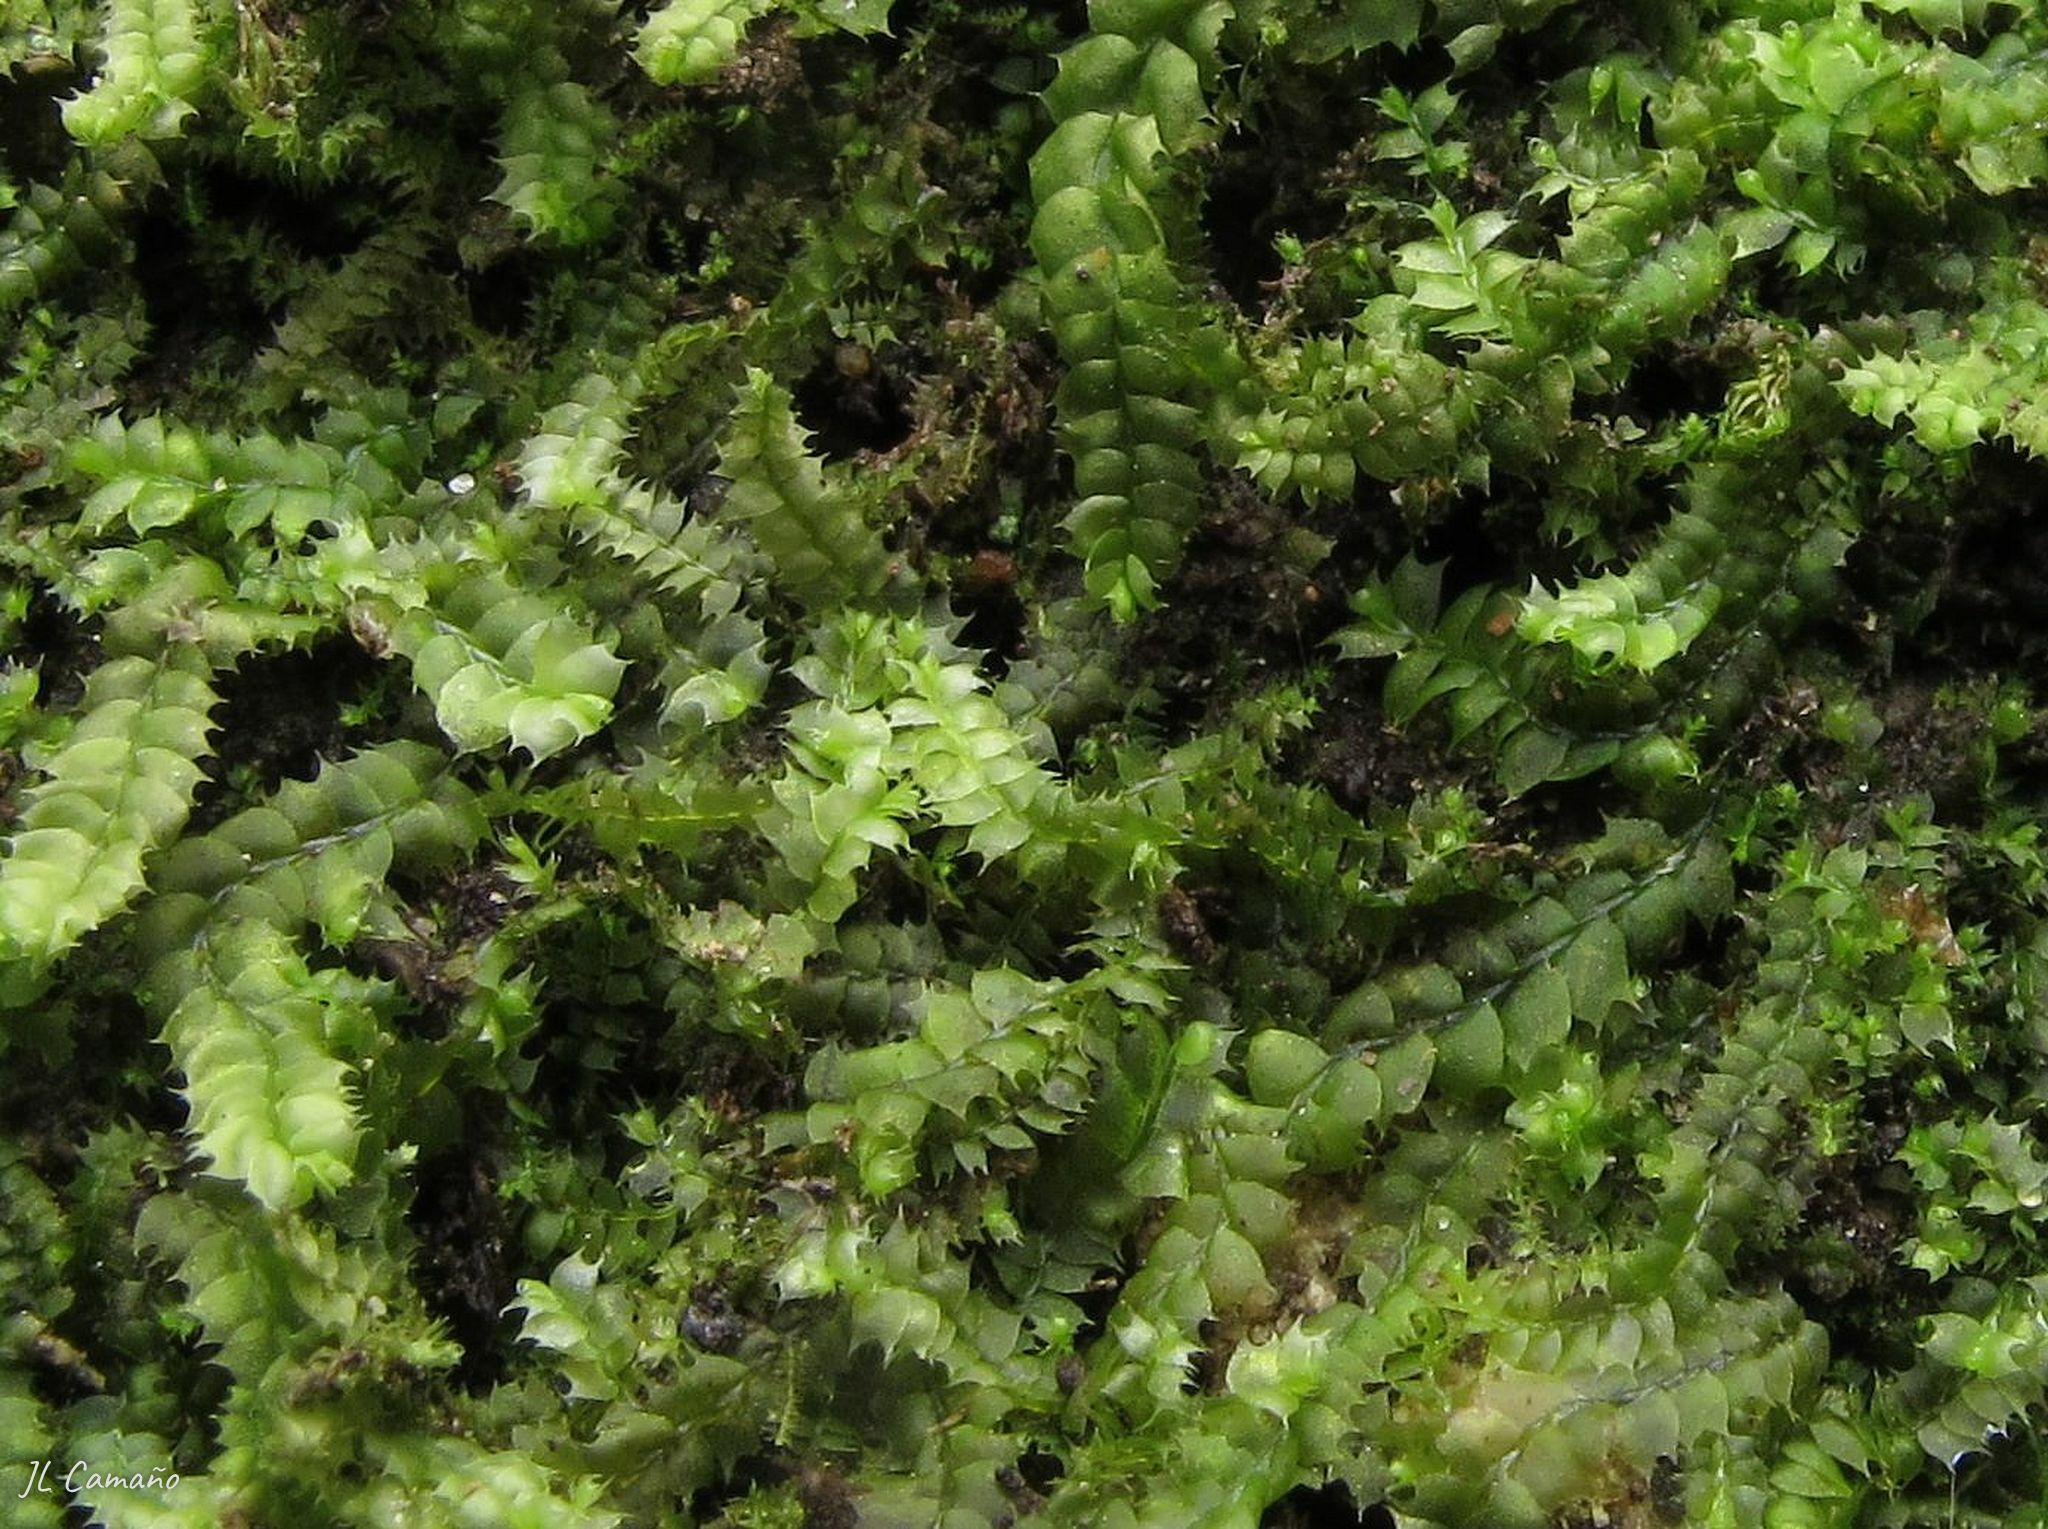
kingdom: Plantae
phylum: Marchantiophyta
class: Jungermanniopsida
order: Jungermanniales
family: Lophocoleaceae
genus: Lophocolea
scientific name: Lophocolea bidentata
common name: Bifid crestwort
